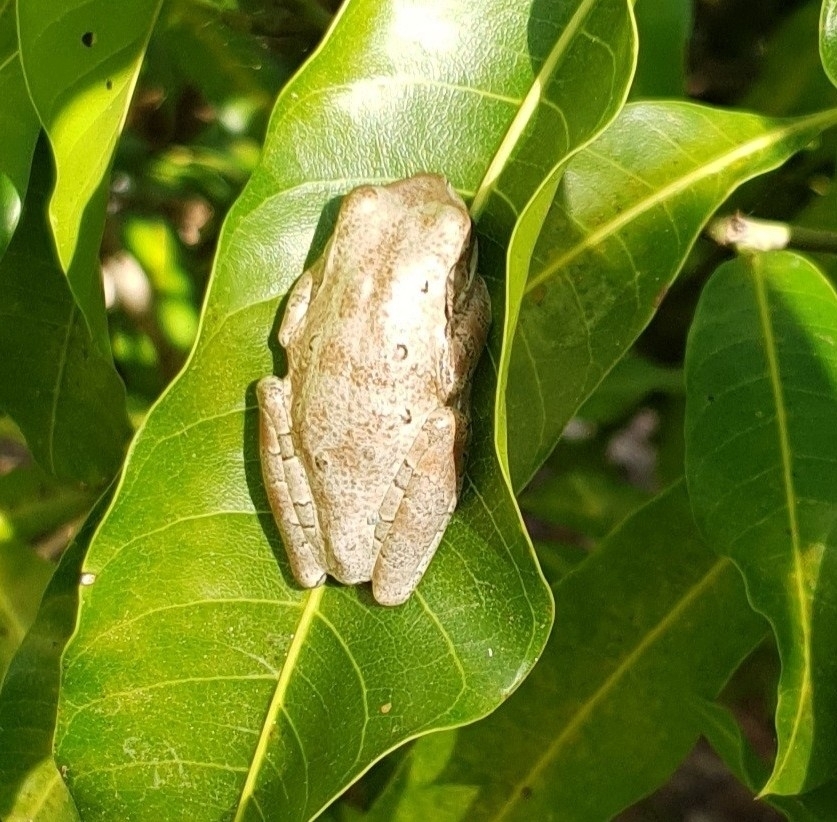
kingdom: Animalia
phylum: Chordata
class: Amphibia
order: Anura
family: Hylidae
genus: Osteopilus
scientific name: Osteopilus septentrionalis
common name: Cuban treefrog
